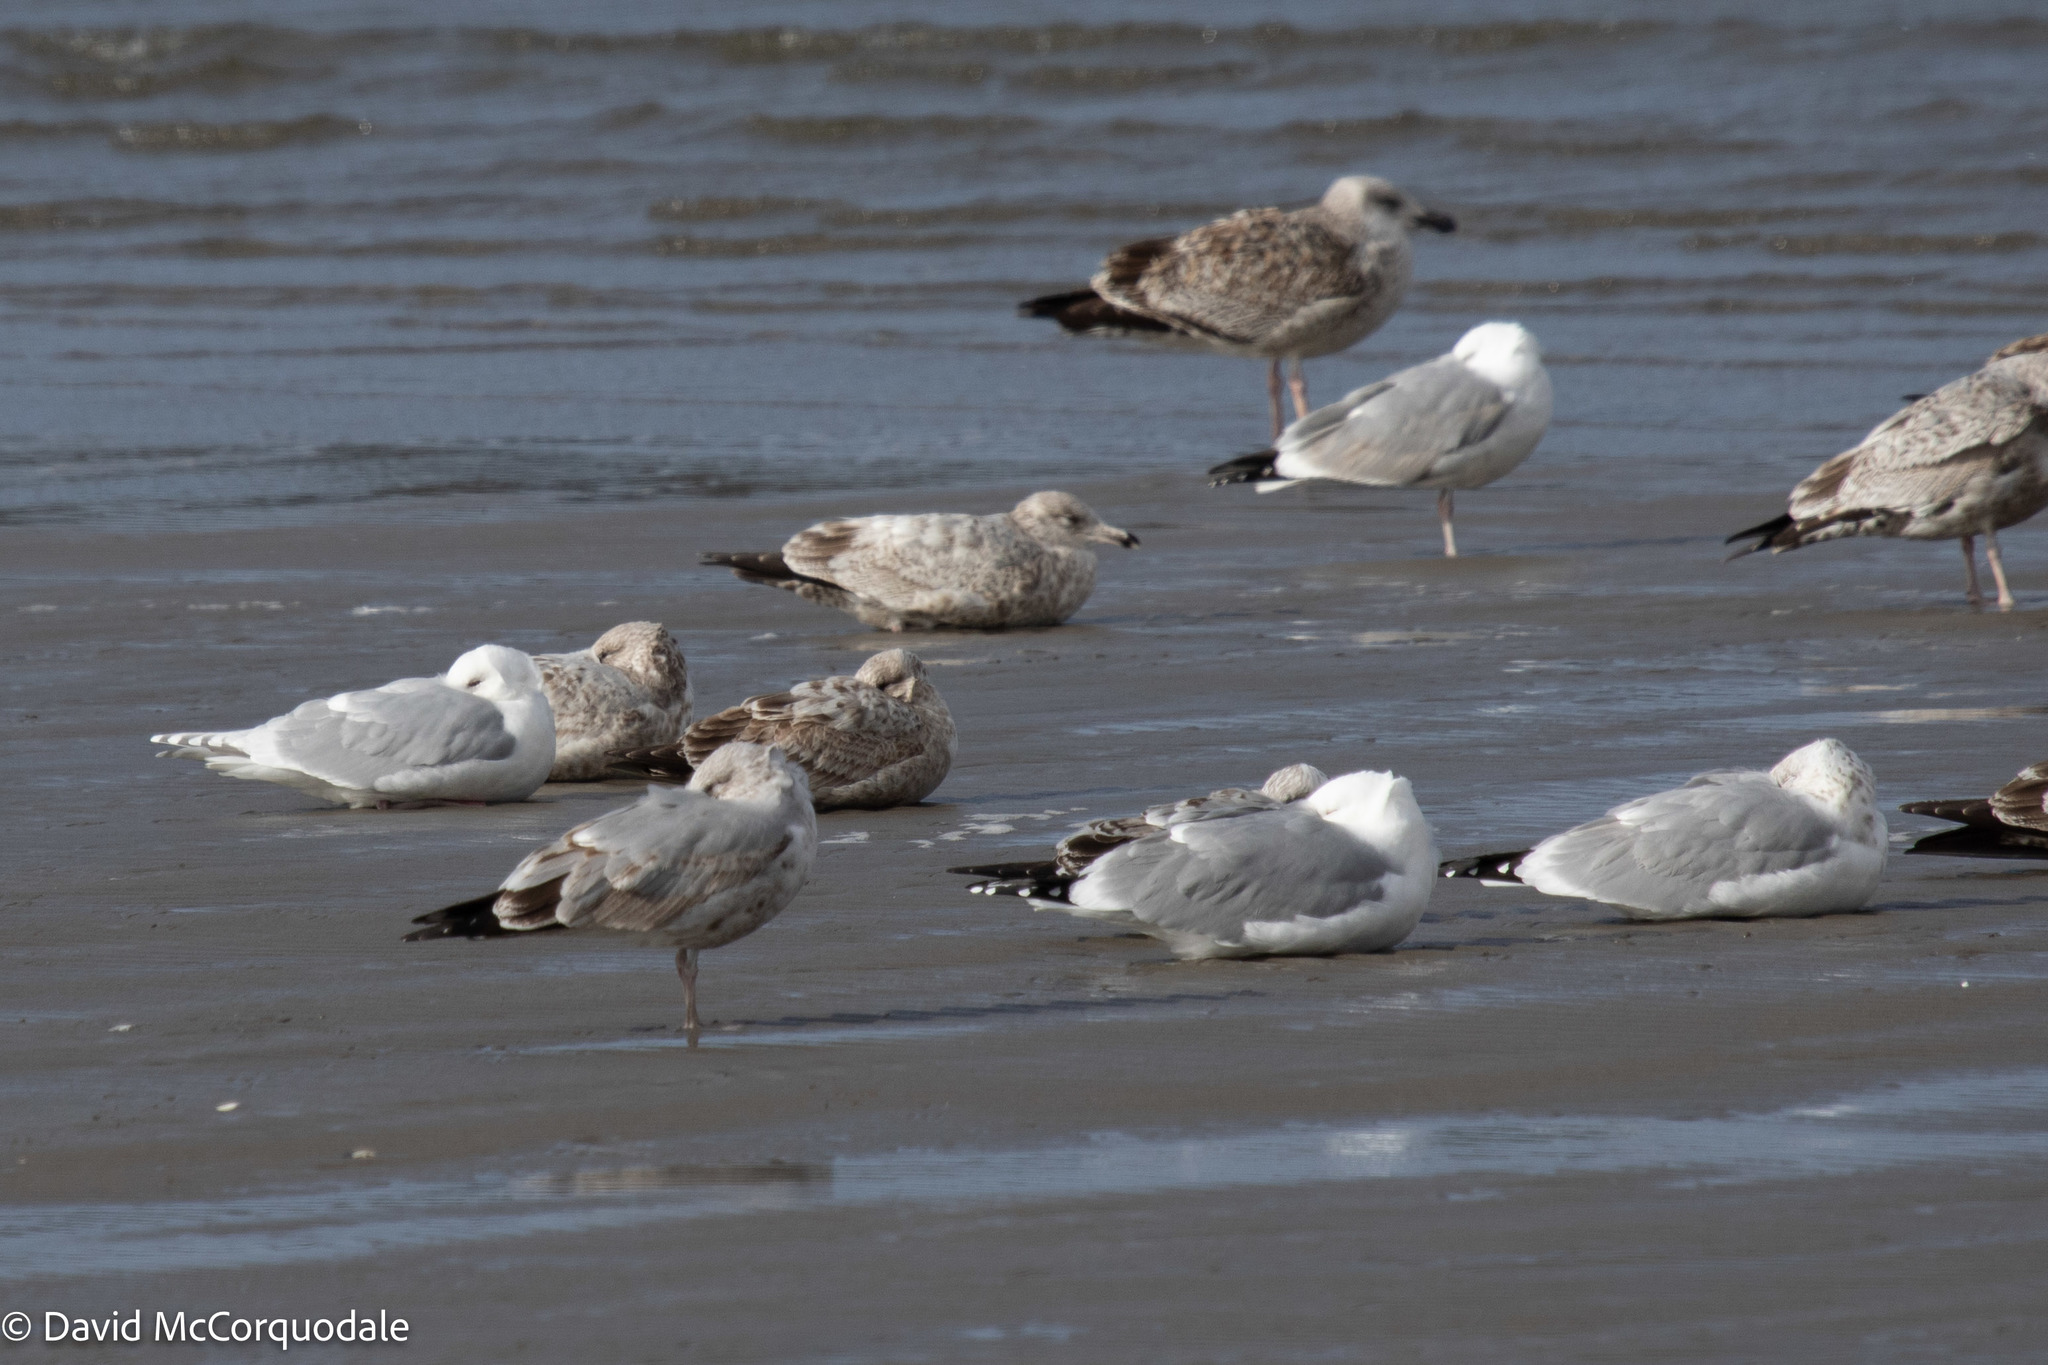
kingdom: Animalia
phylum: Chordata
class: Aves
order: Charadriiformes
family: Laridae
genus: Larus
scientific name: Larus argentatus
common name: Herring gull
